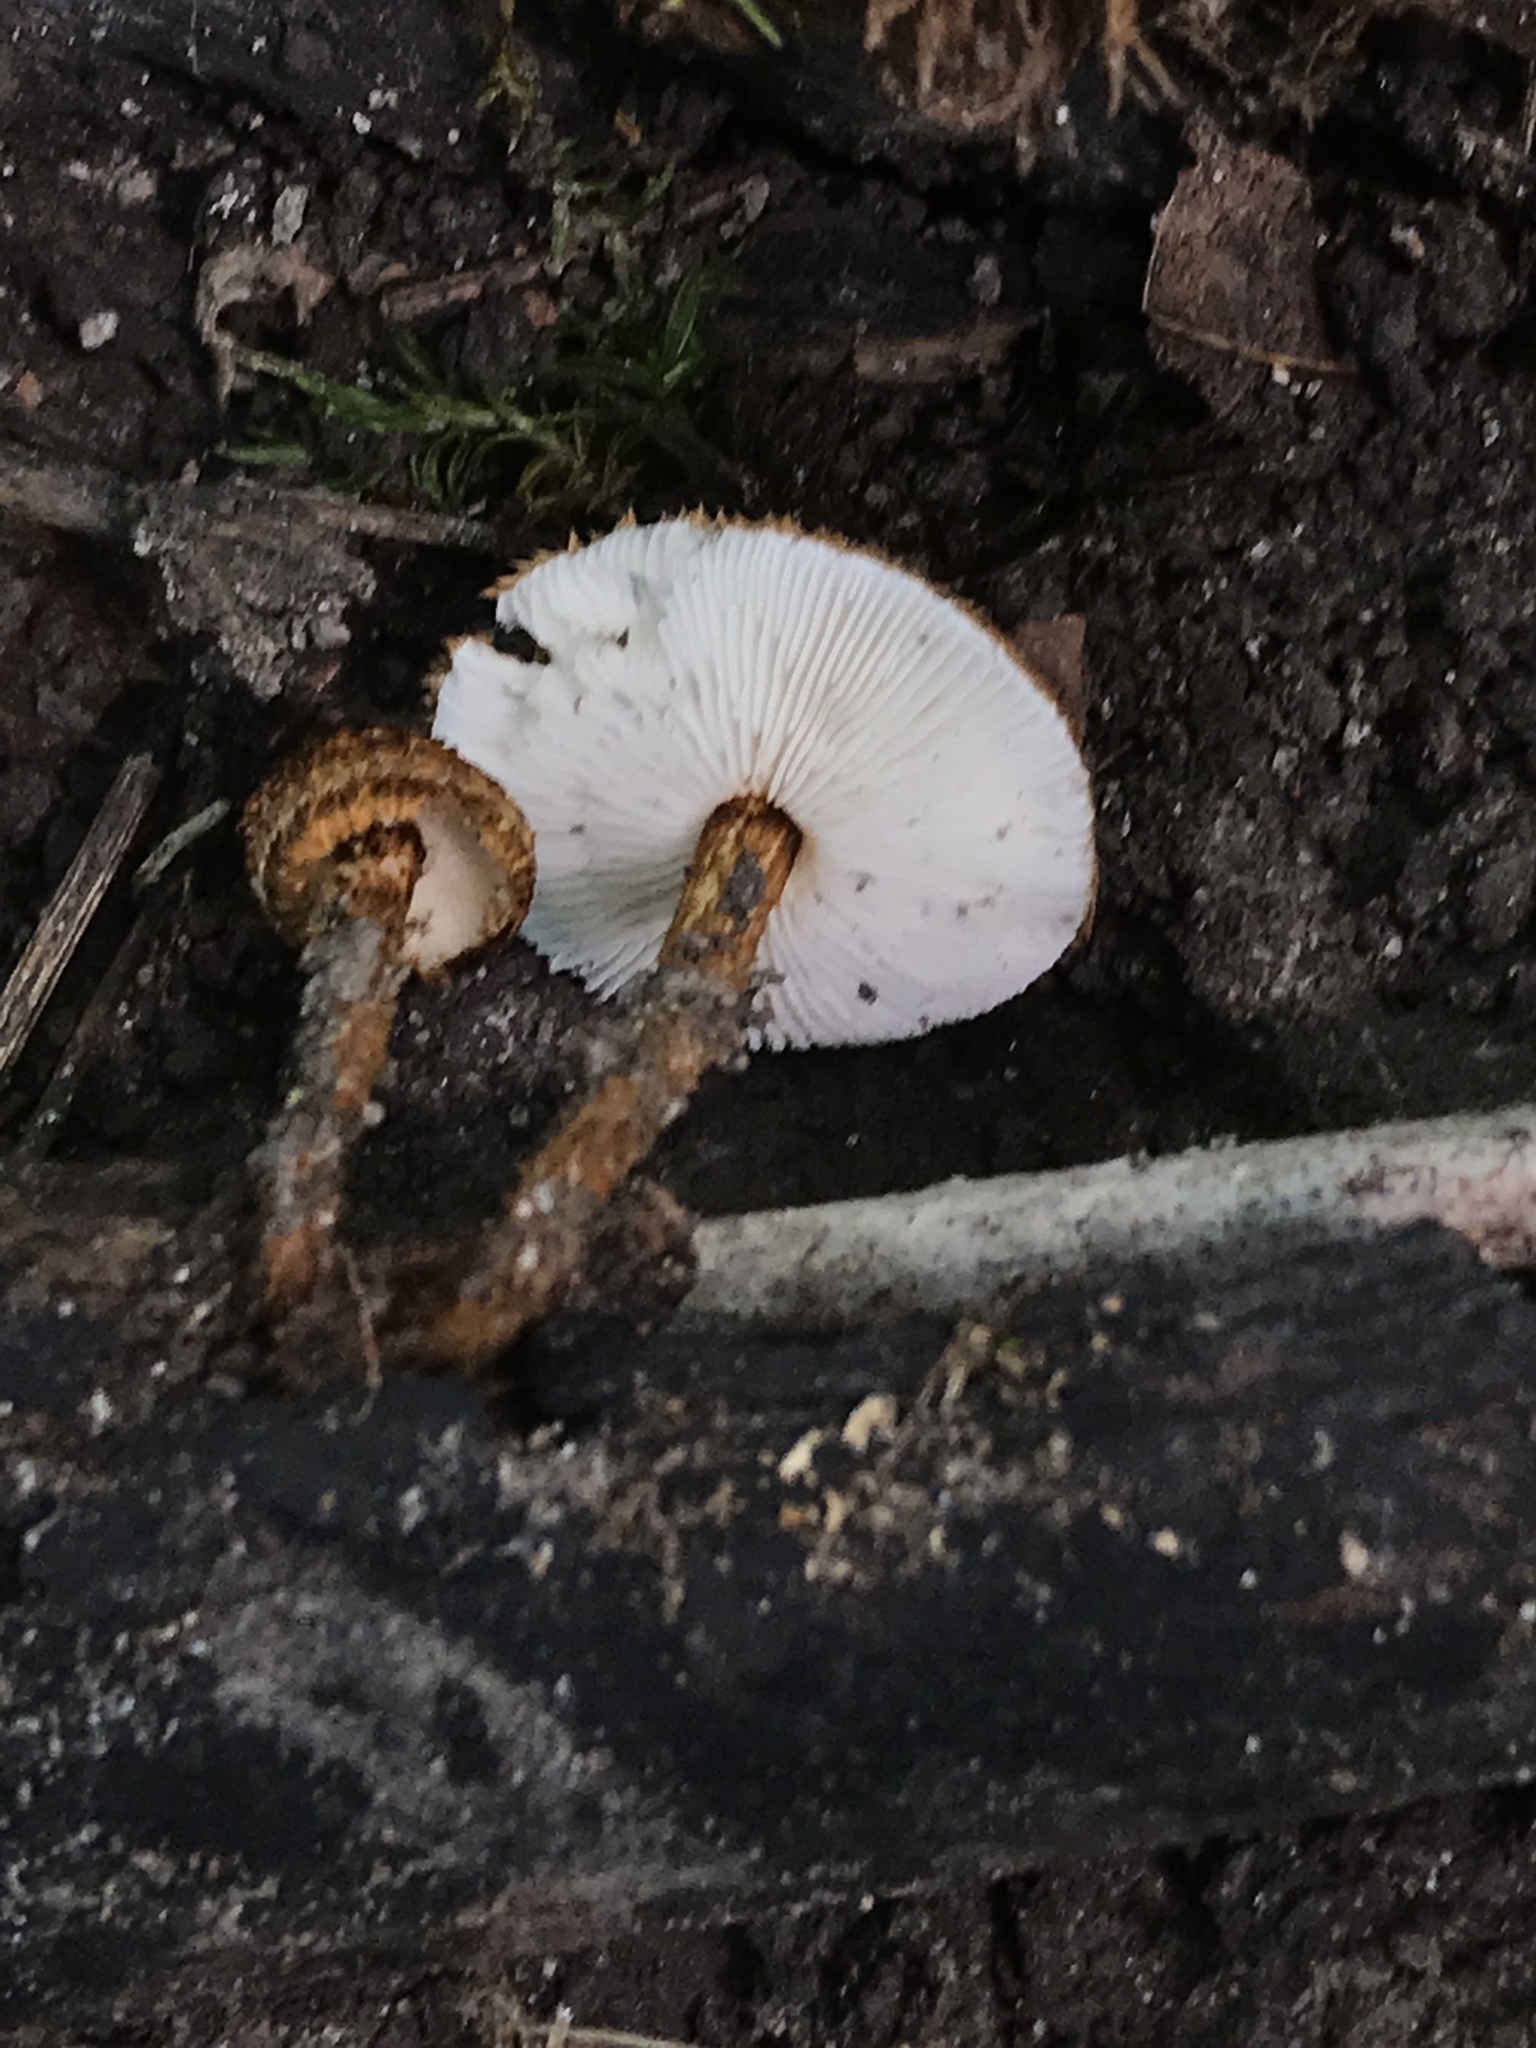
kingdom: Fungi
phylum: Basidiomycota
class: Agaricomycetes
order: Agaricales
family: Tricholomataceae
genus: Collybia
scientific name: Collybia zonata
